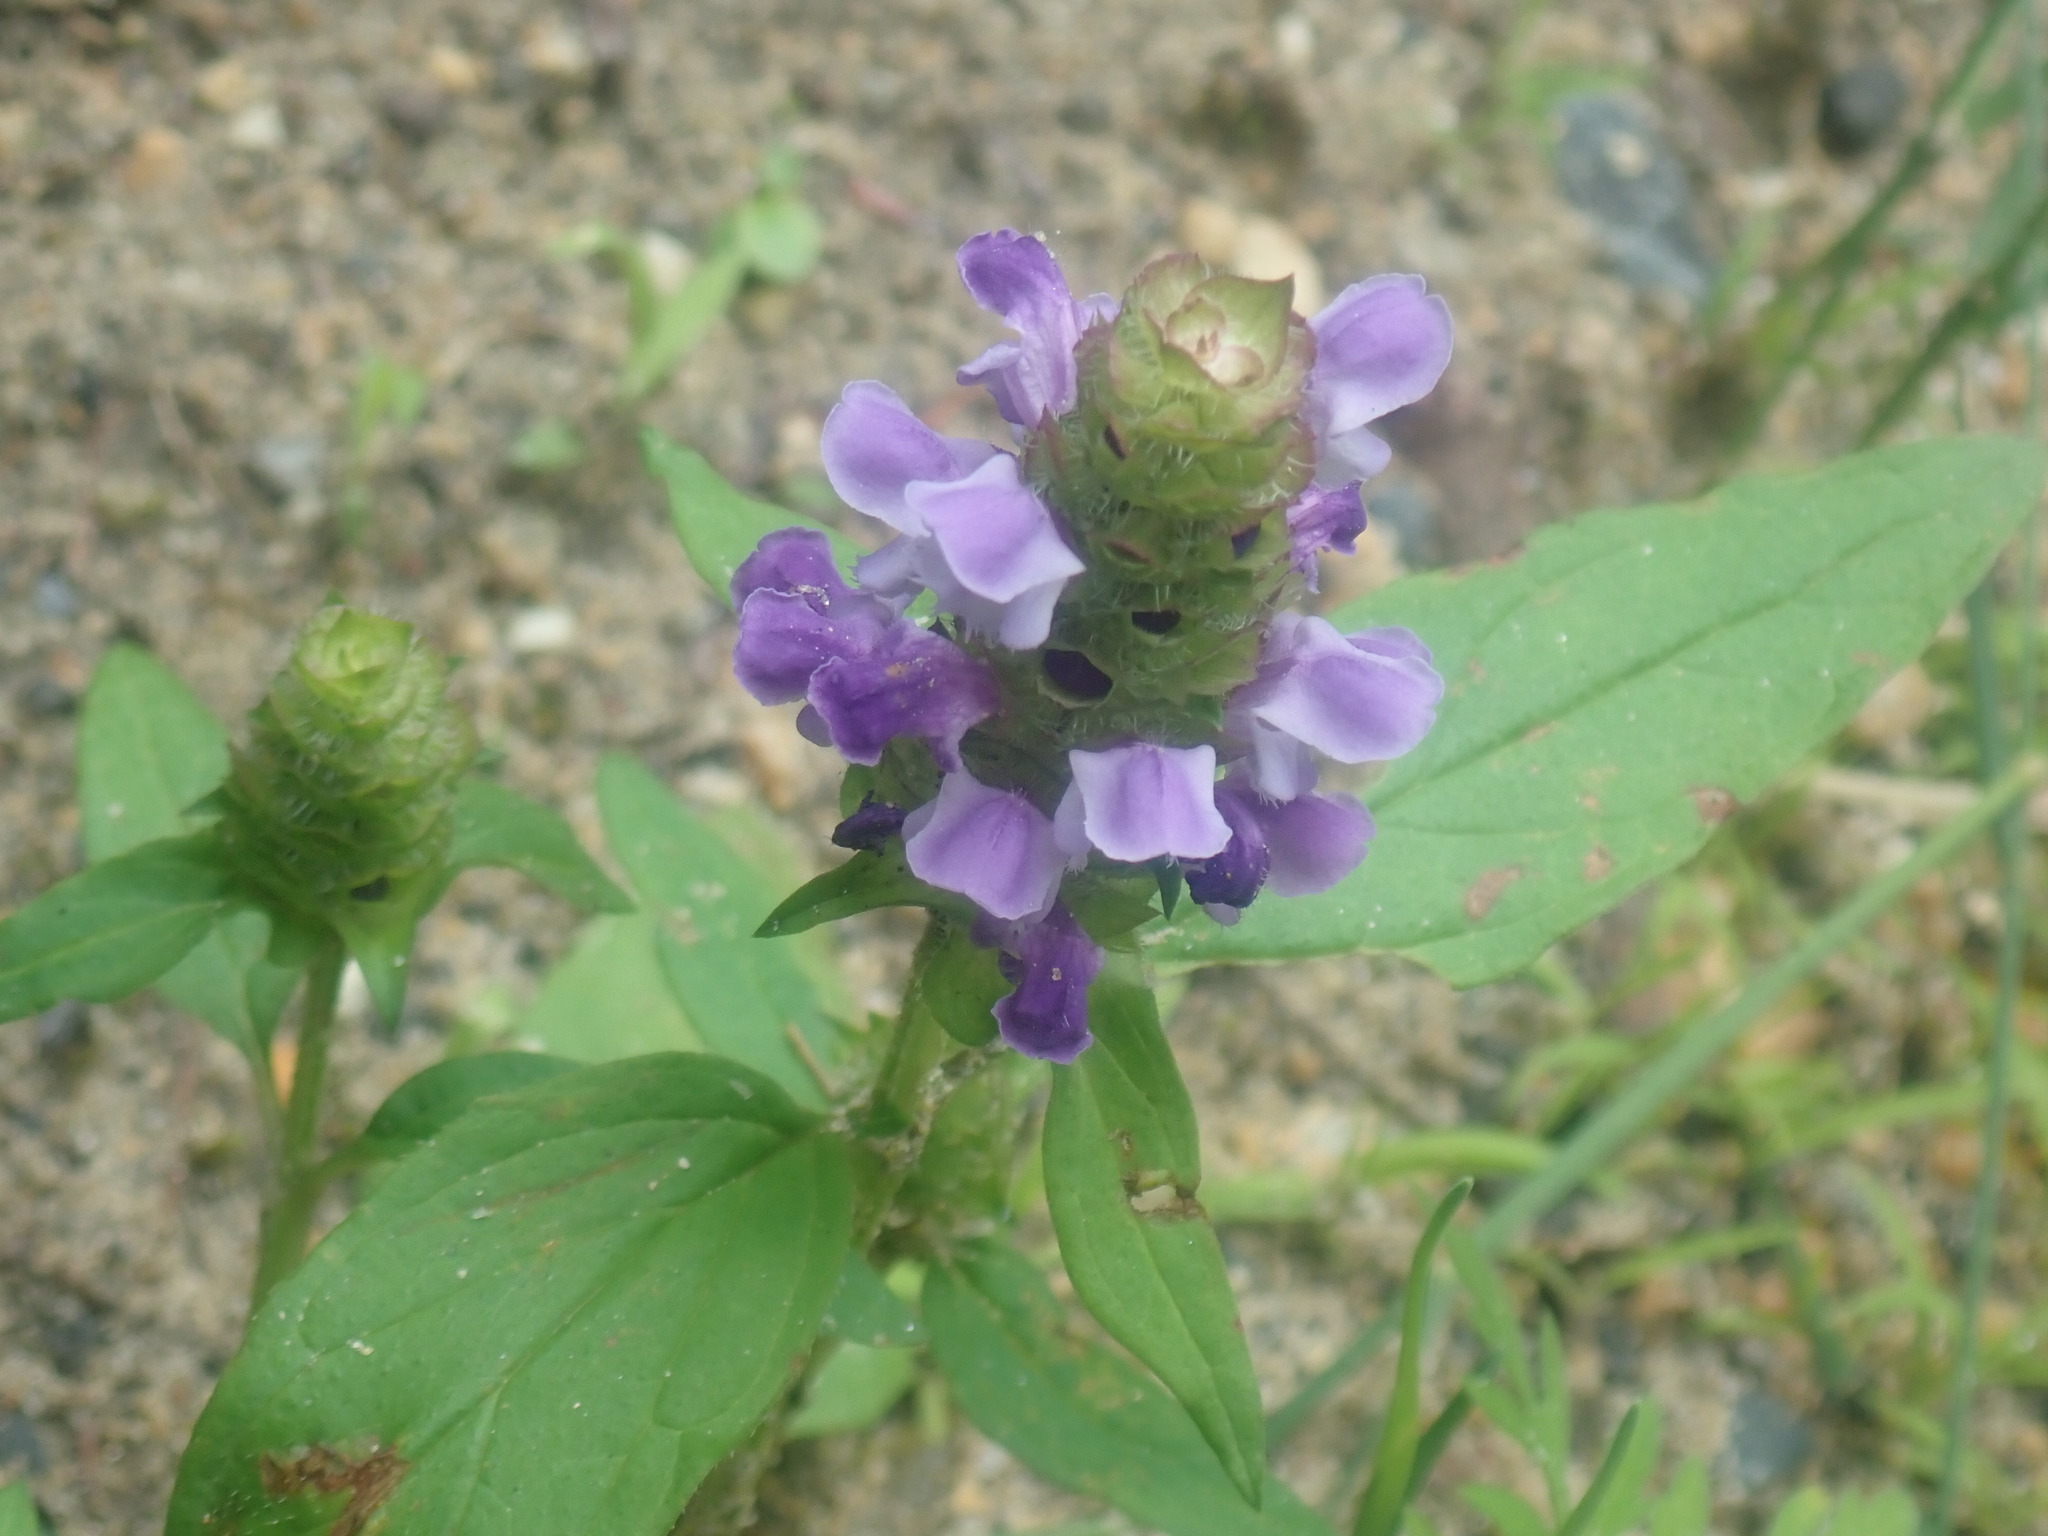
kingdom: Plantae
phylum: Tracheophyta
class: Magnoliopsida
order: Lamiales
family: Lamiaceae
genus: Prunella
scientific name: Prunella vulgaris
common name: Heal-all
